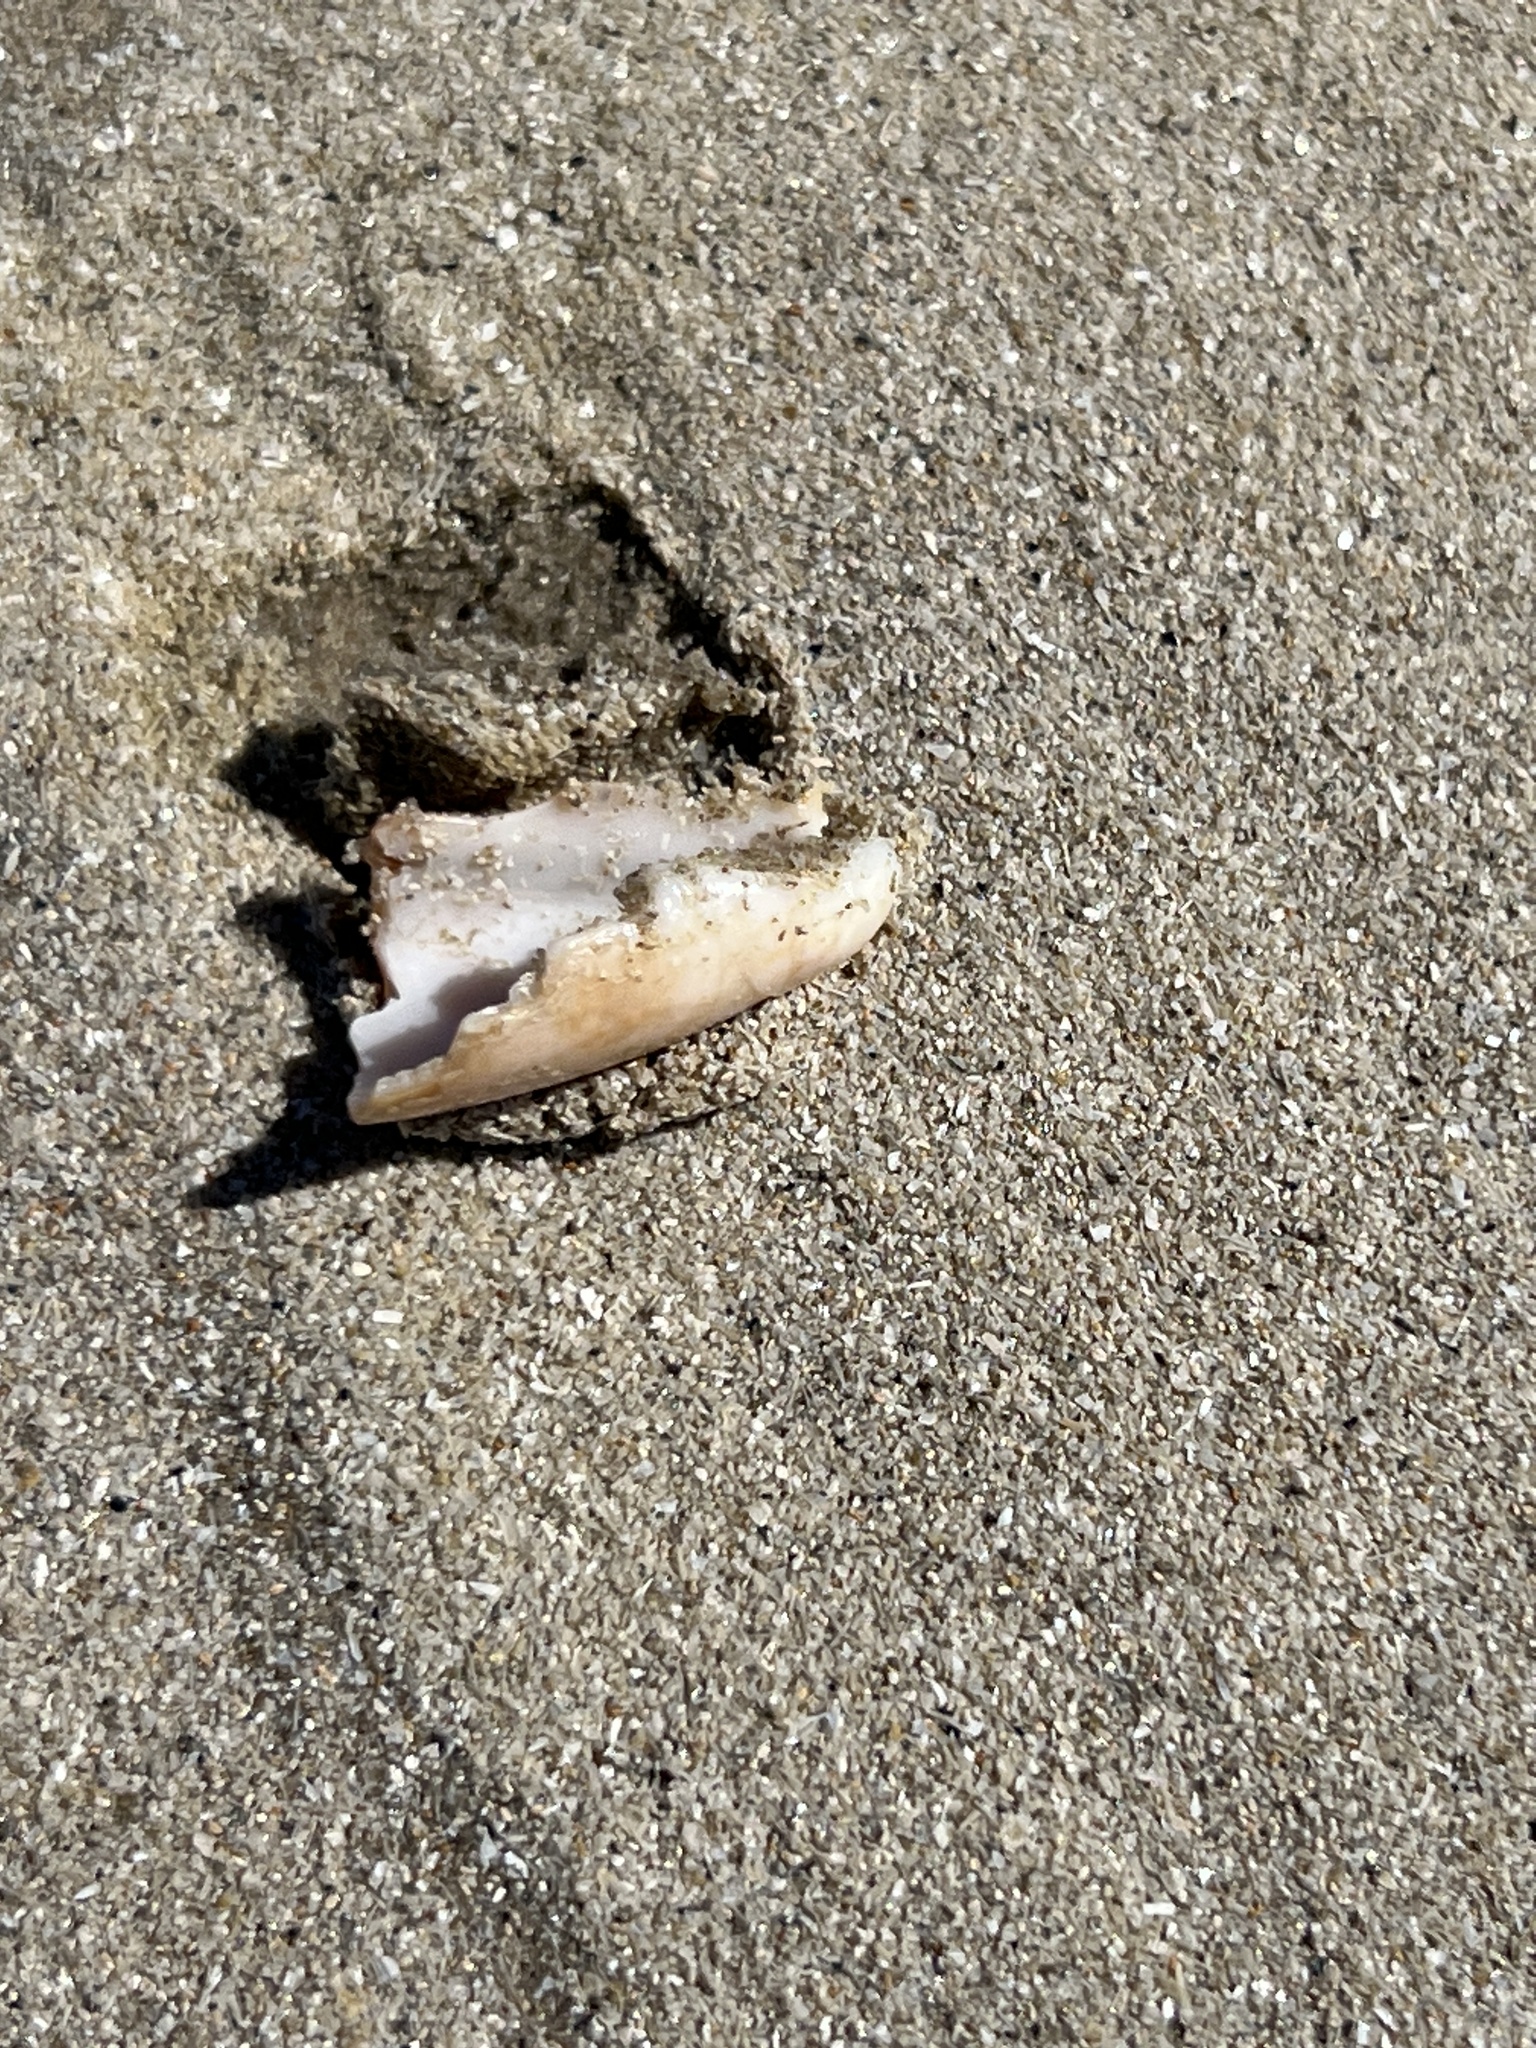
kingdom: Animalia
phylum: Mollusca
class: Gastropoda
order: Neogastropoda
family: Olividae
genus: Oliva
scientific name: Oliva sayana
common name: Lettered olive
